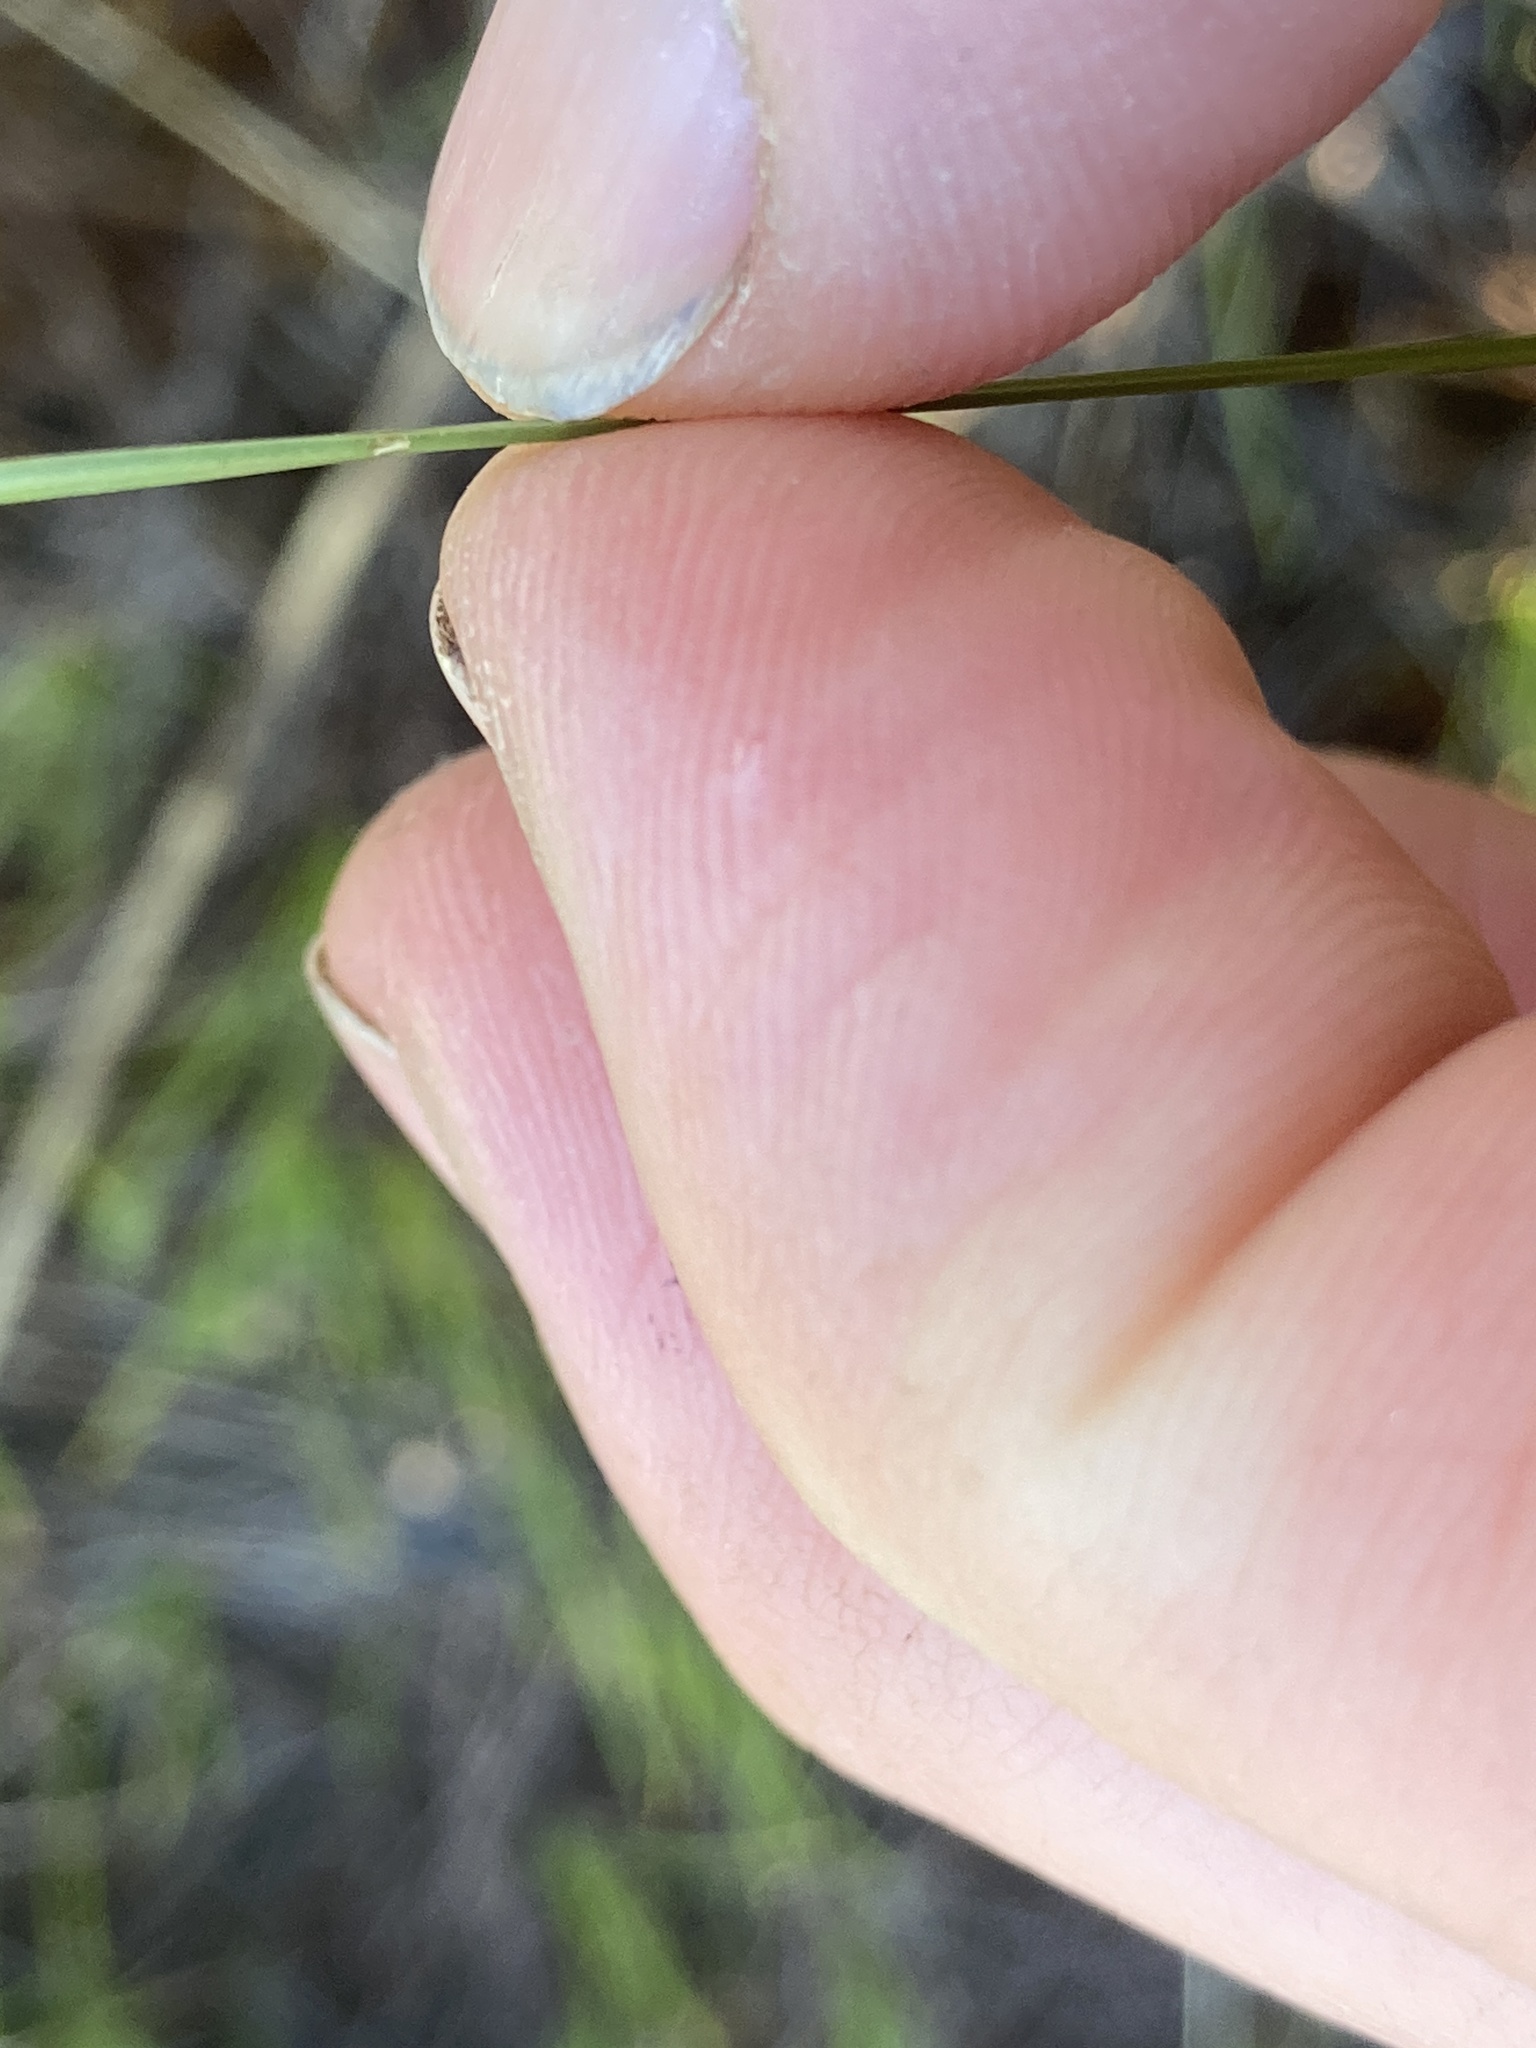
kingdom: Plantae
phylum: Tracheophyta
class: Liliopsida
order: Poales
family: Cyperaceae
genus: Eleocharis
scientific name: Eleocharis compressa
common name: Flat-stem spike-rush
